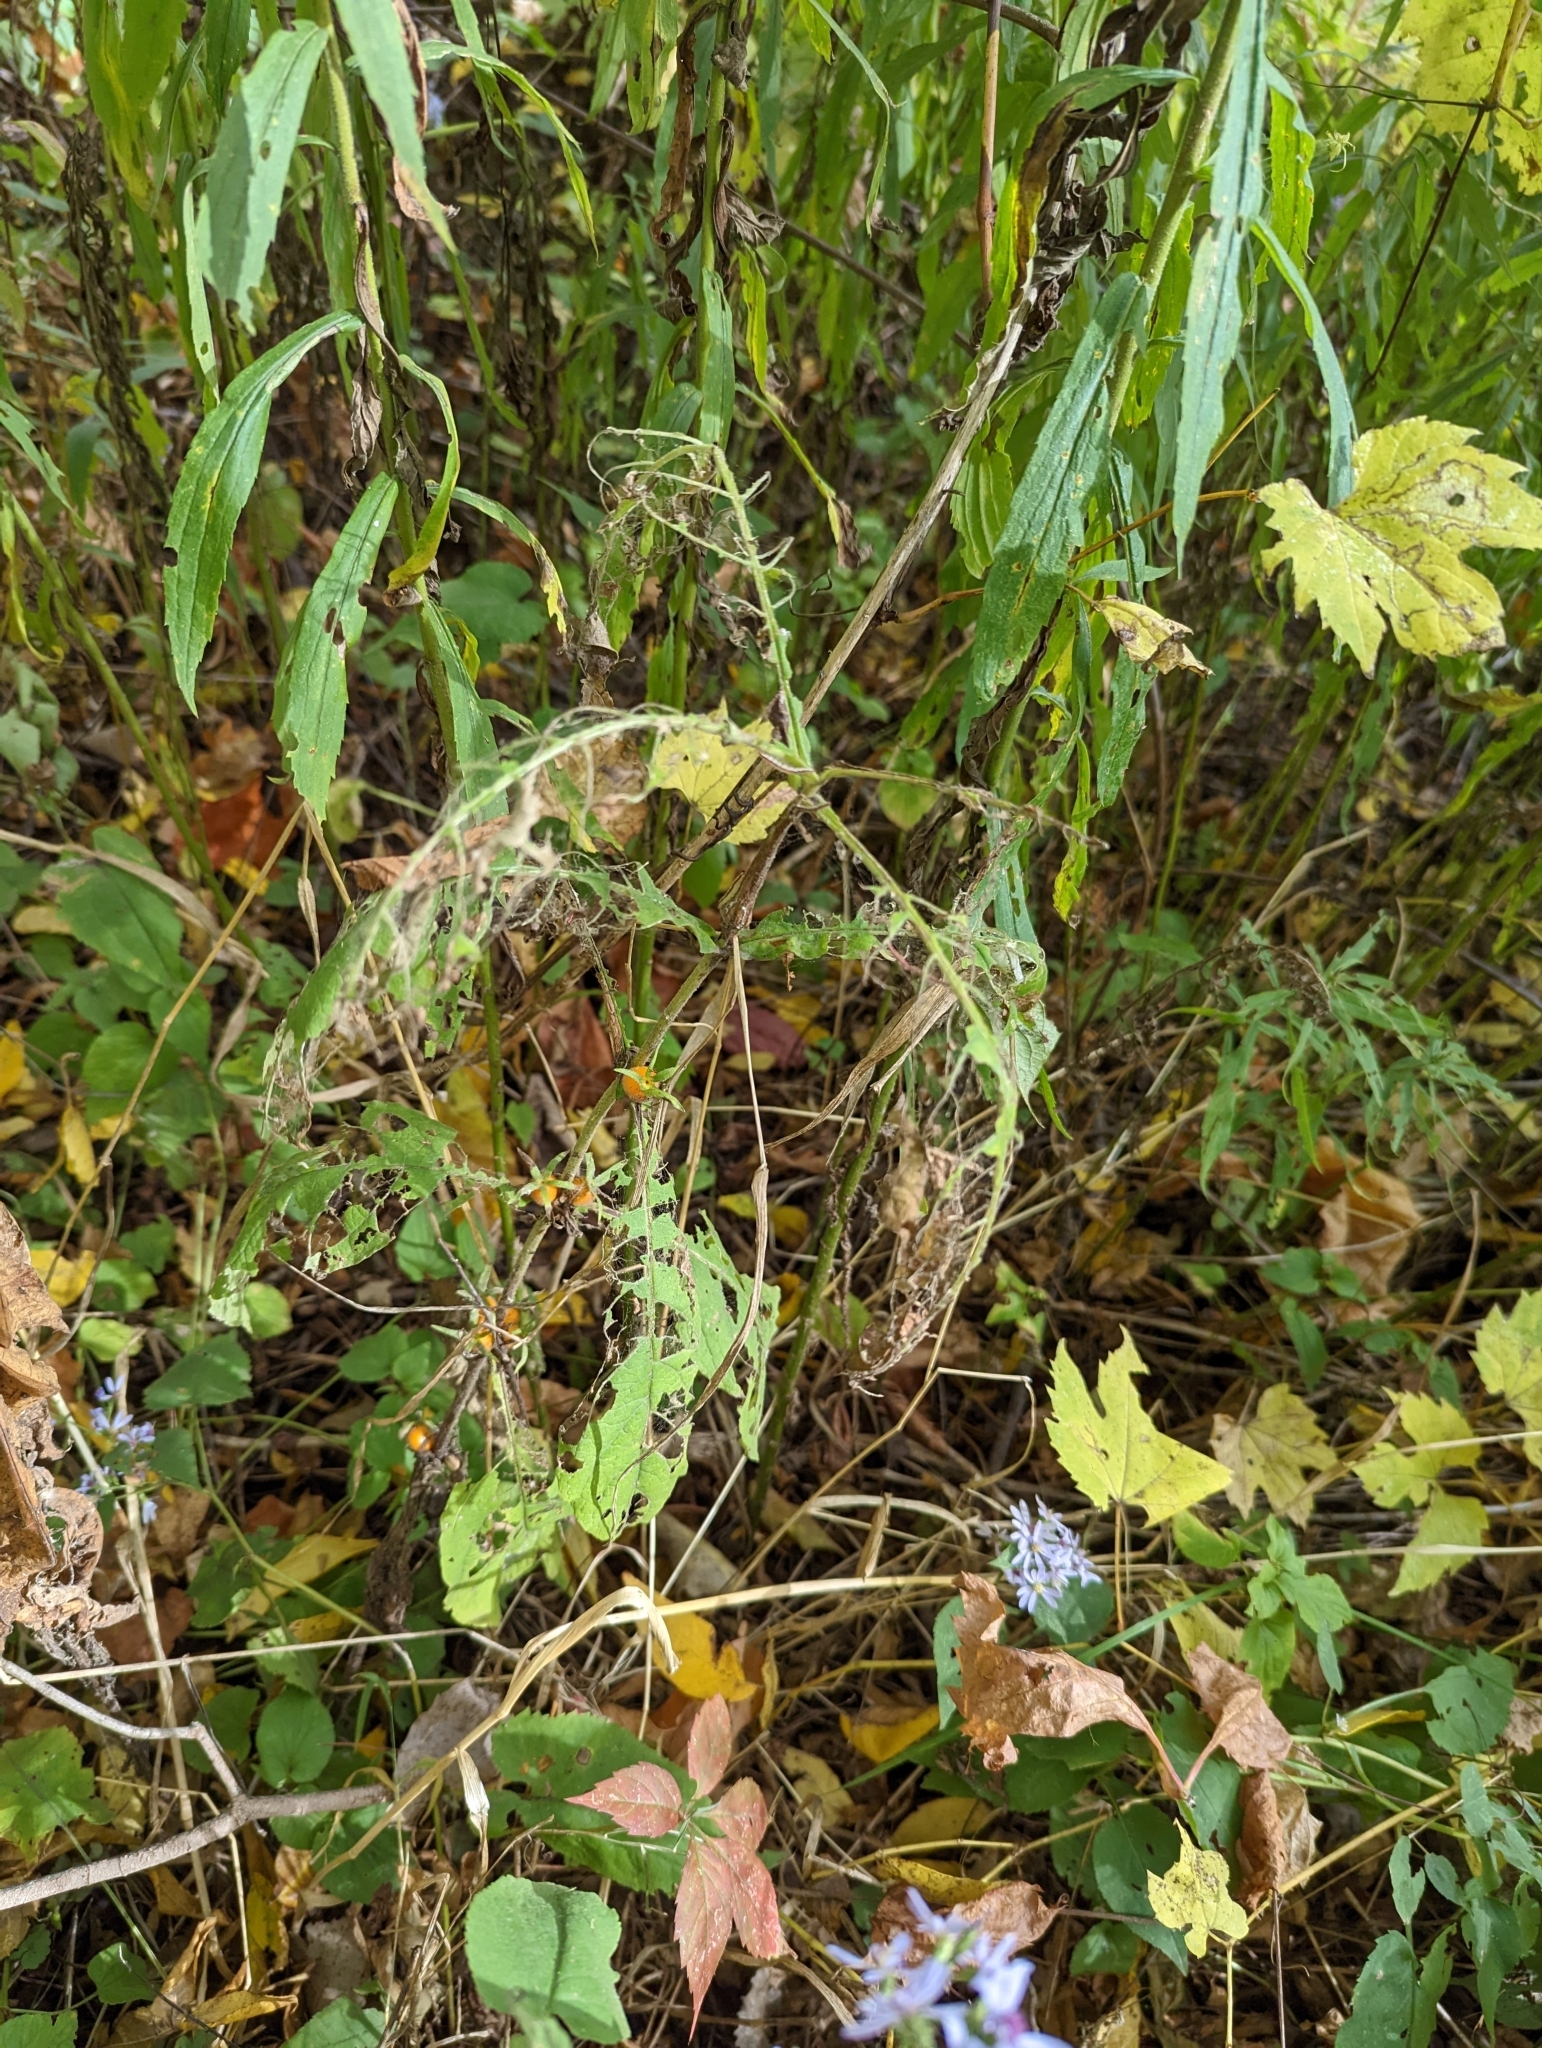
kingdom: Plantae
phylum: Tracheophyta
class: Magnoliopsida
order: Dipsacales
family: Caprifoliaceae
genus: Triosteum
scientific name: Triosteum aurantiacum
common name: Coffee tinker's-weed
